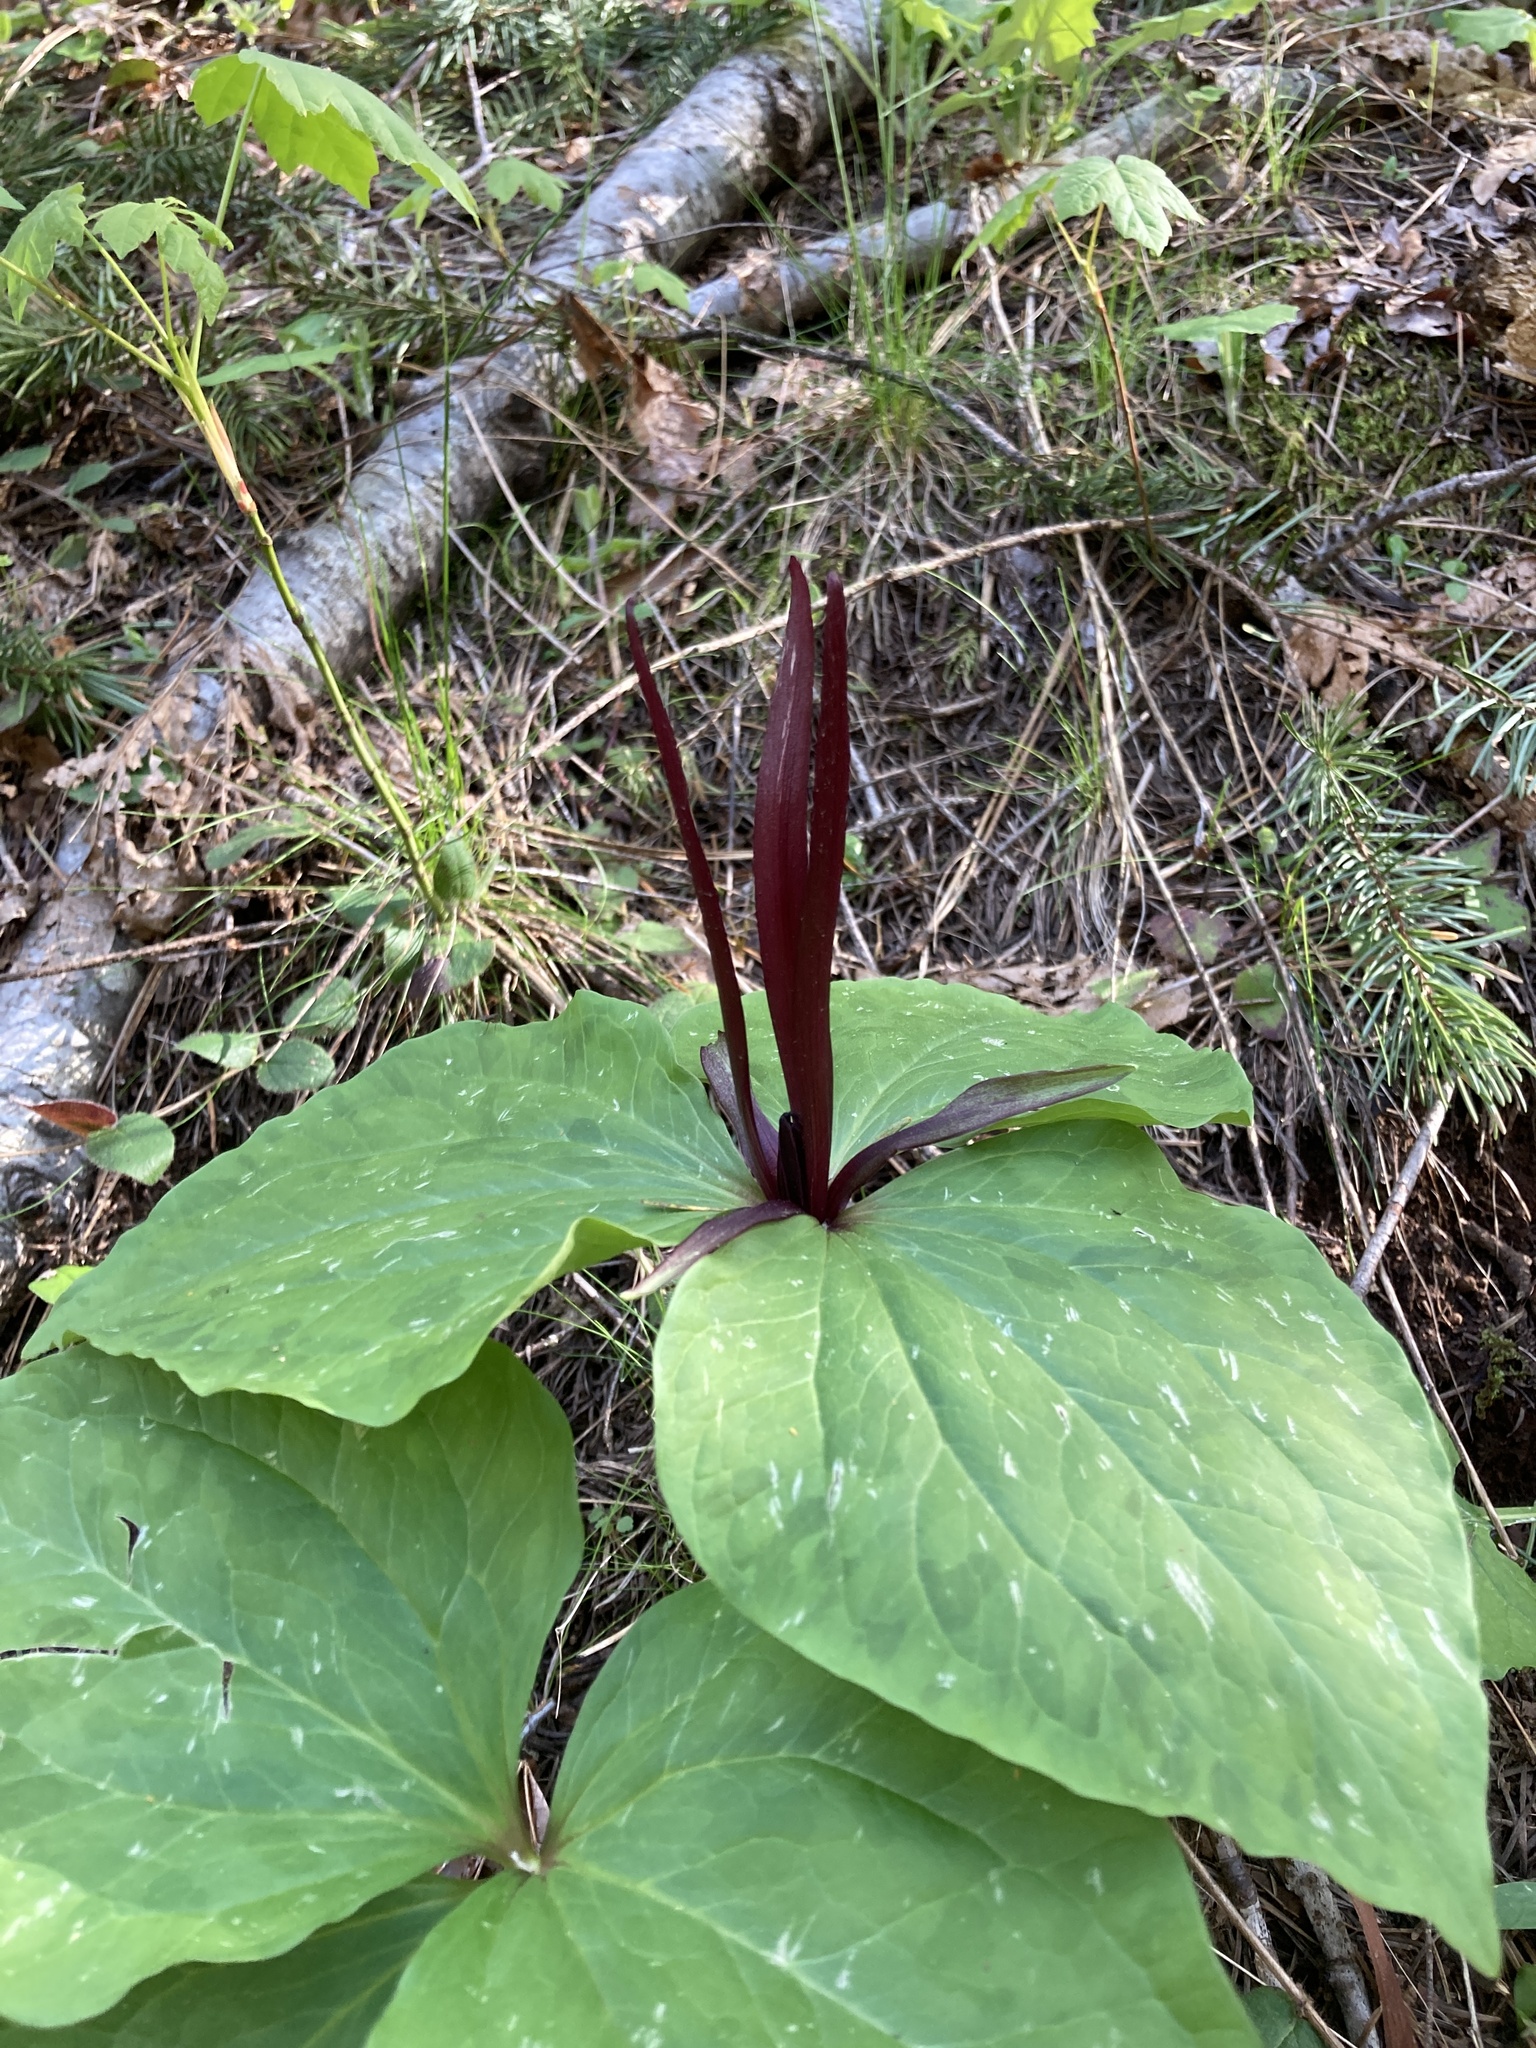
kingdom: Plantae
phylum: Tracheophyta
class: Liliopsida
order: Liliales
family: Melanthiaceae
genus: Trillium
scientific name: Trillium angustipetalum
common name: Narrow-petaled trillium
